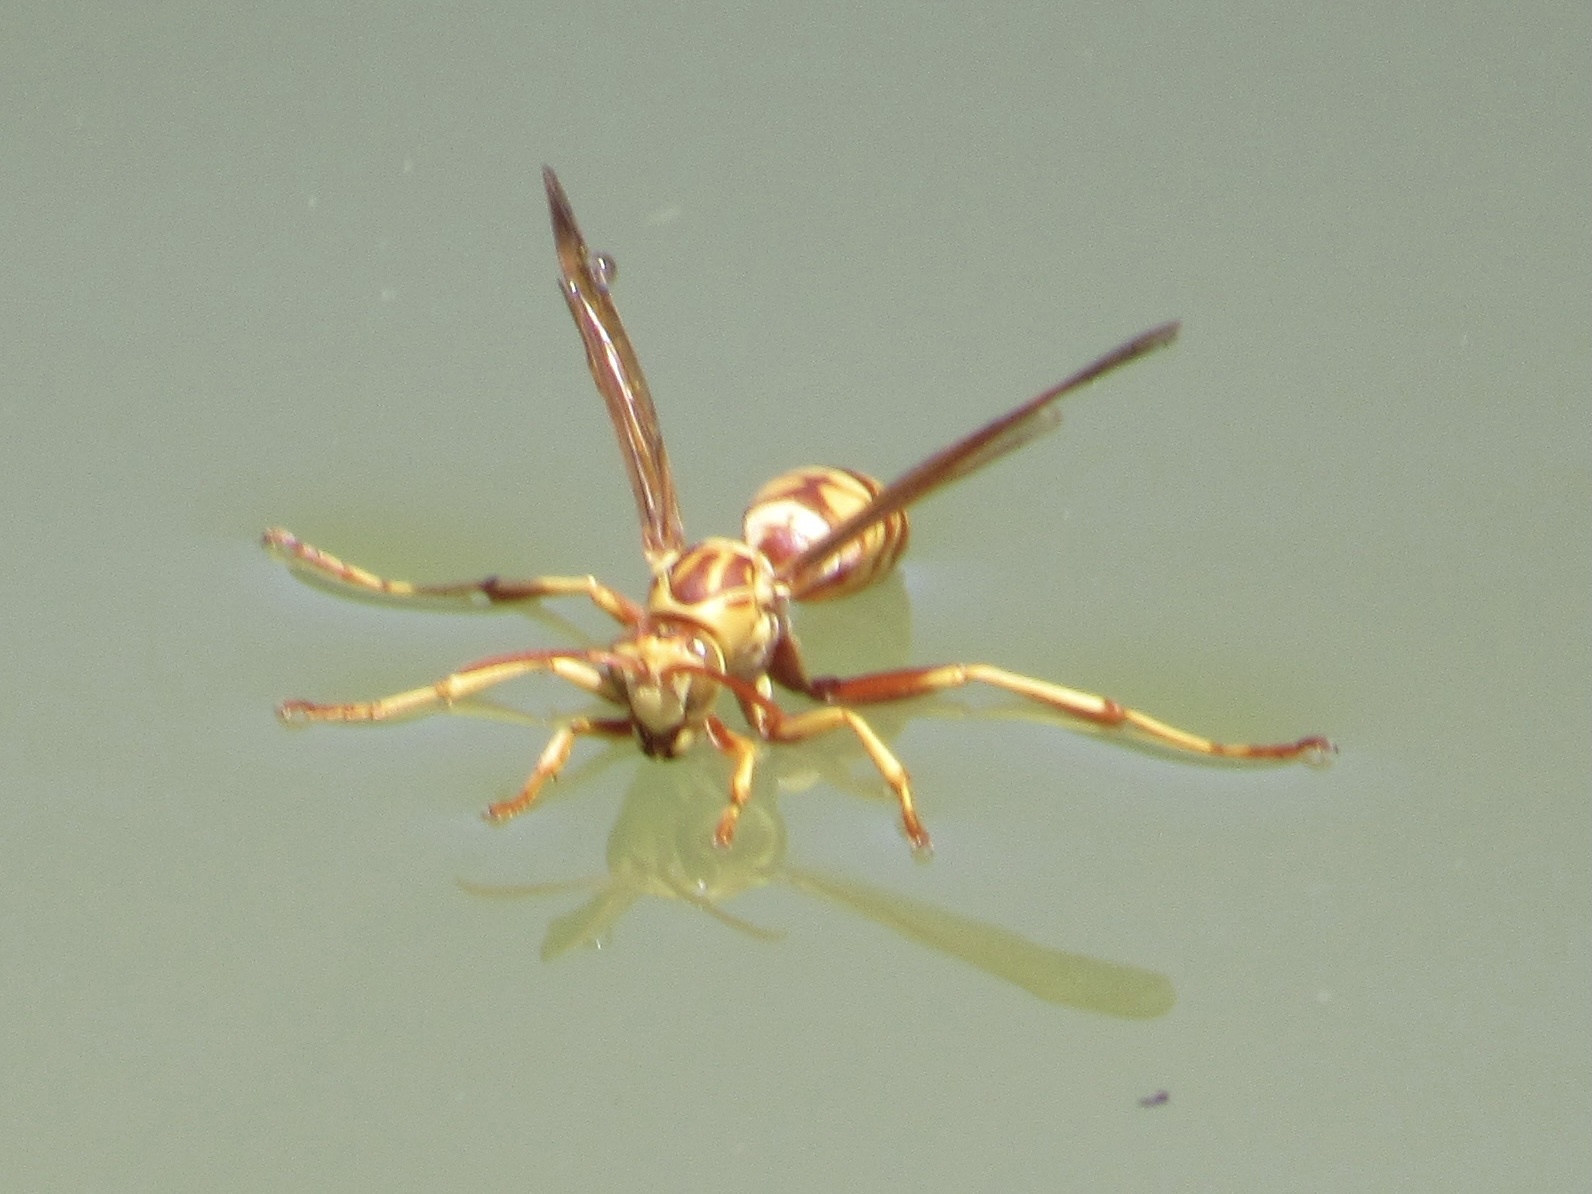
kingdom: Animalia
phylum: Arthropoda
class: Insecta
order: Hymenoptera
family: Eumenidae
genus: Polistes
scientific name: Polistes apachus
